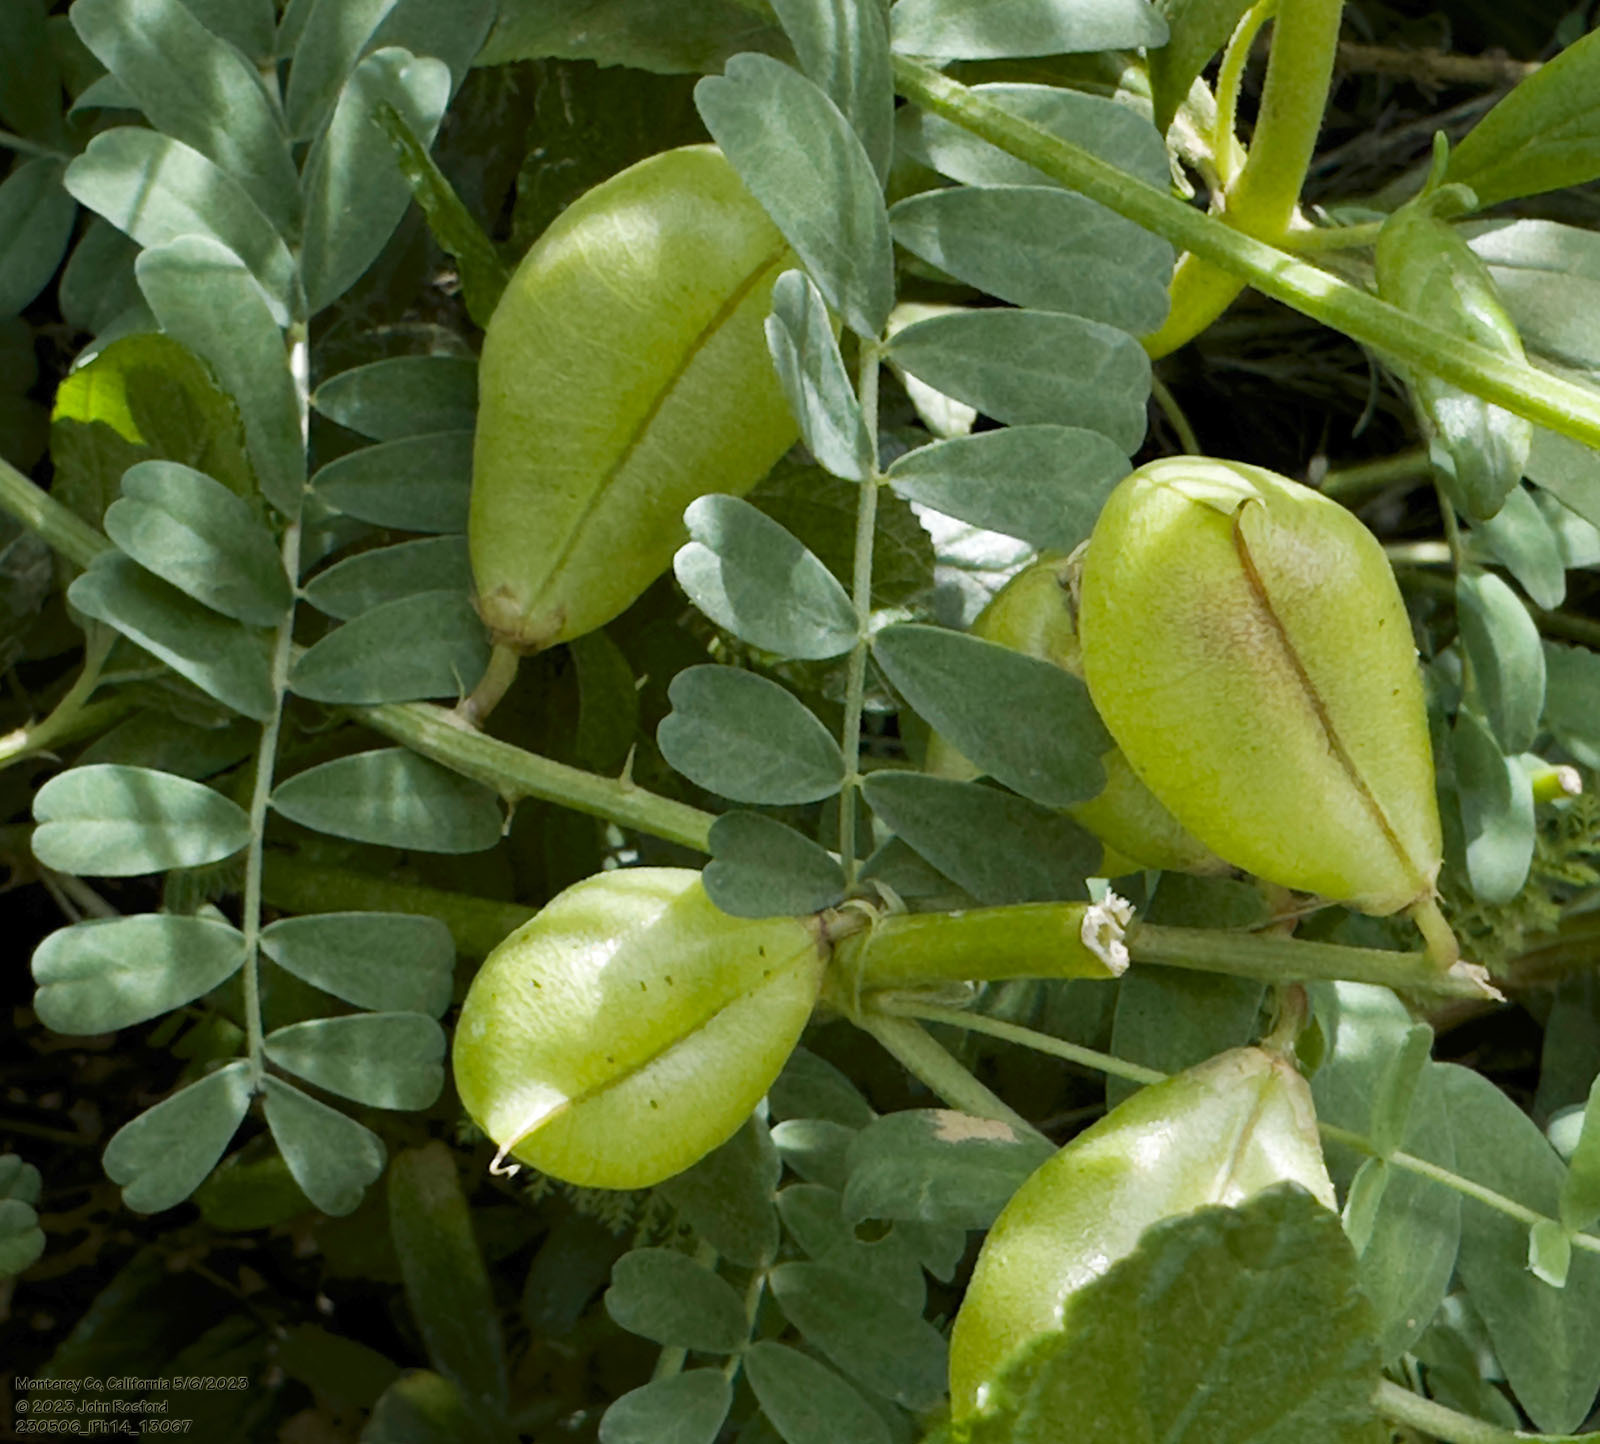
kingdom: Plantae
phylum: Tracheophyta
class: Magnoliopsida
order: Fabales
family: Fabaceae
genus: Astragalus
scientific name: Astragalus nuttallii
